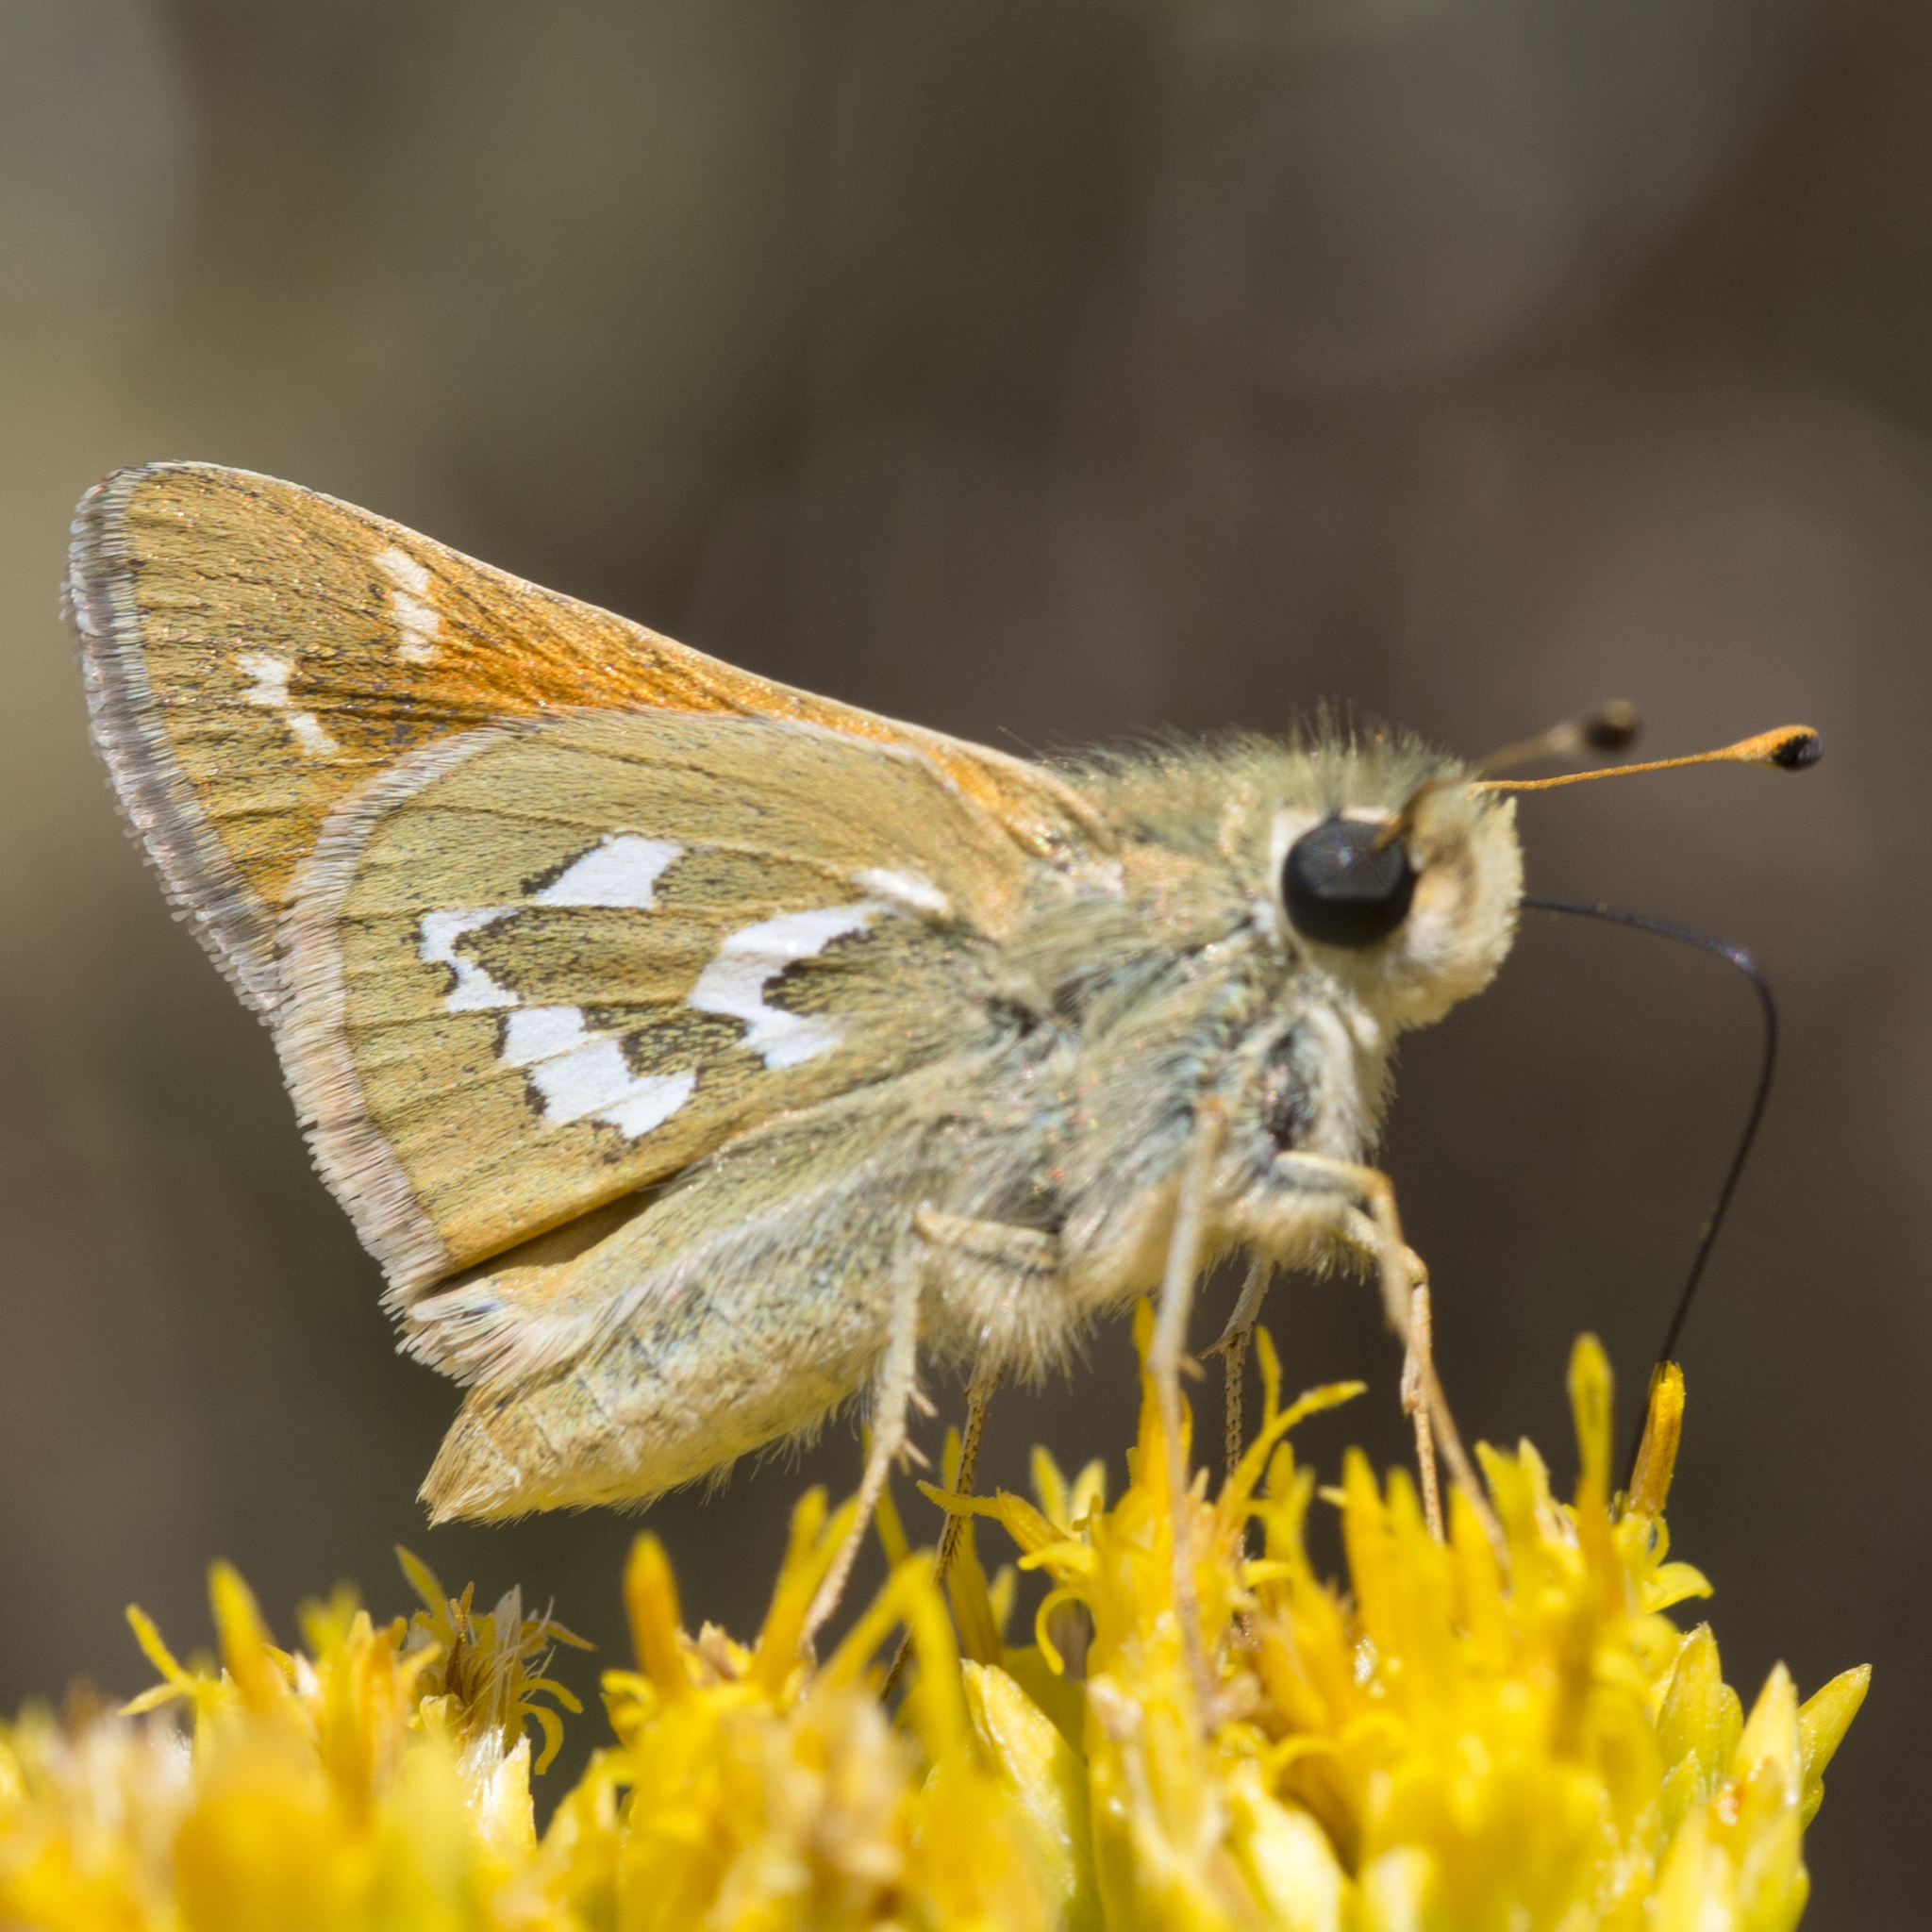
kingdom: Animalia
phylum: Arthropoda
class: Insecta
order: Lepidoptera
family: Hesperiidae
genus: Hesperia
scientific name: Hesperia harpalus
